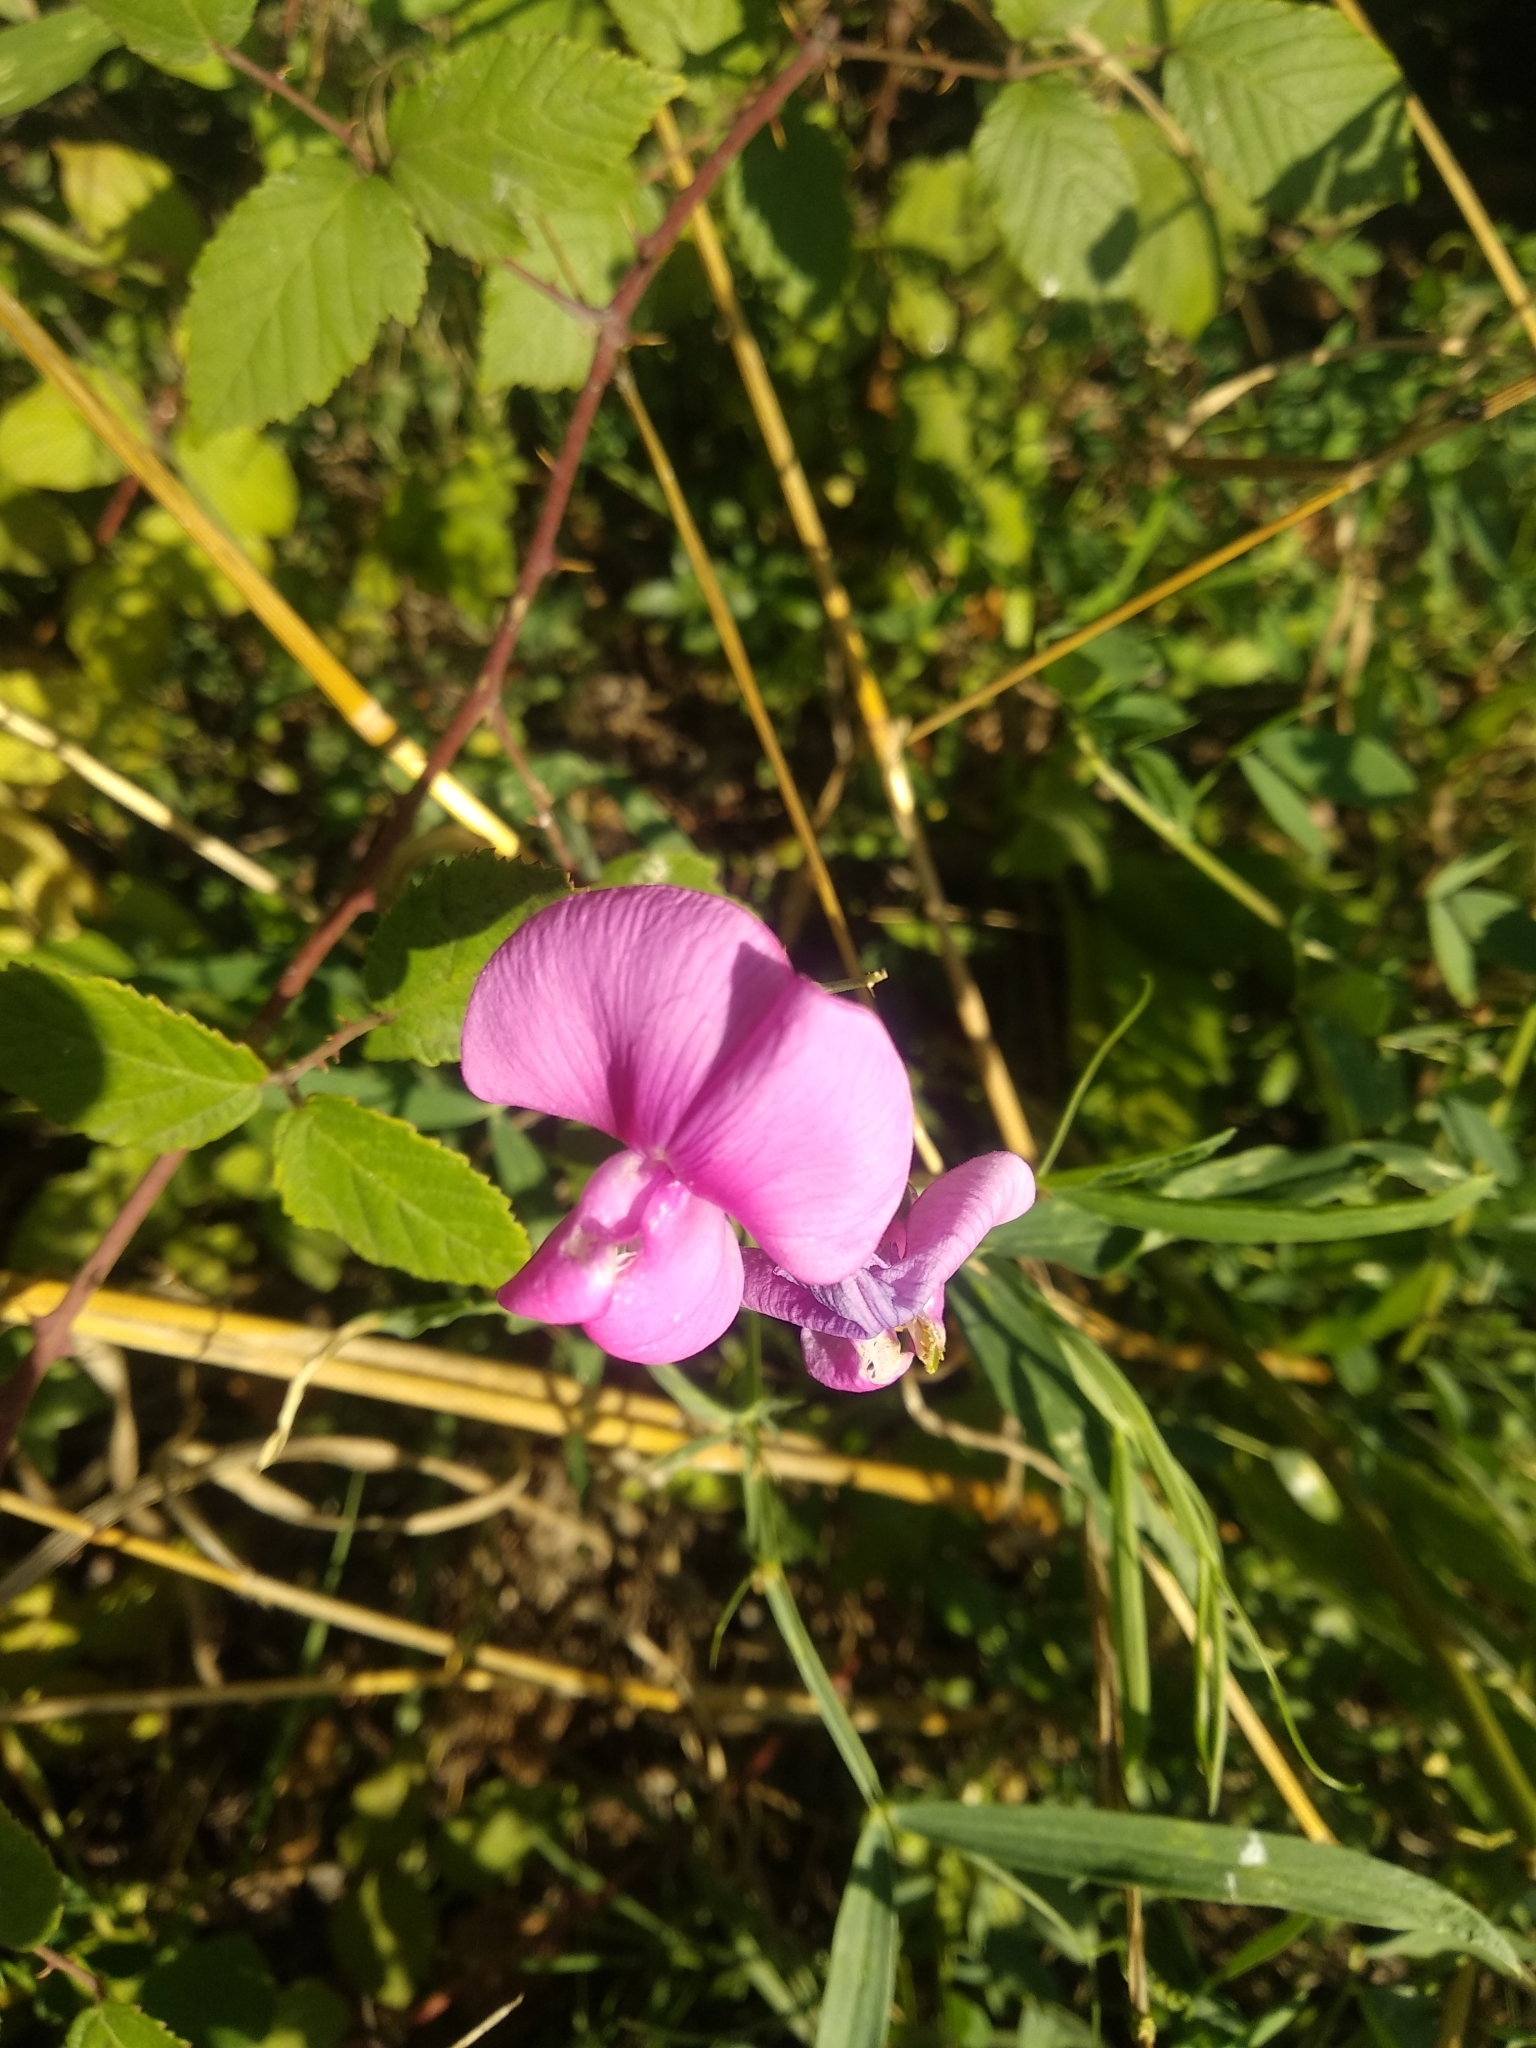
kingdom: Plantae
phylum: Tracheophyta
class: Magnoliopsida
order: Fabales
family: Fabaceae
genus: Lathyrus
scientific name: Lathyrus latifolius
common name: Perennial pea
